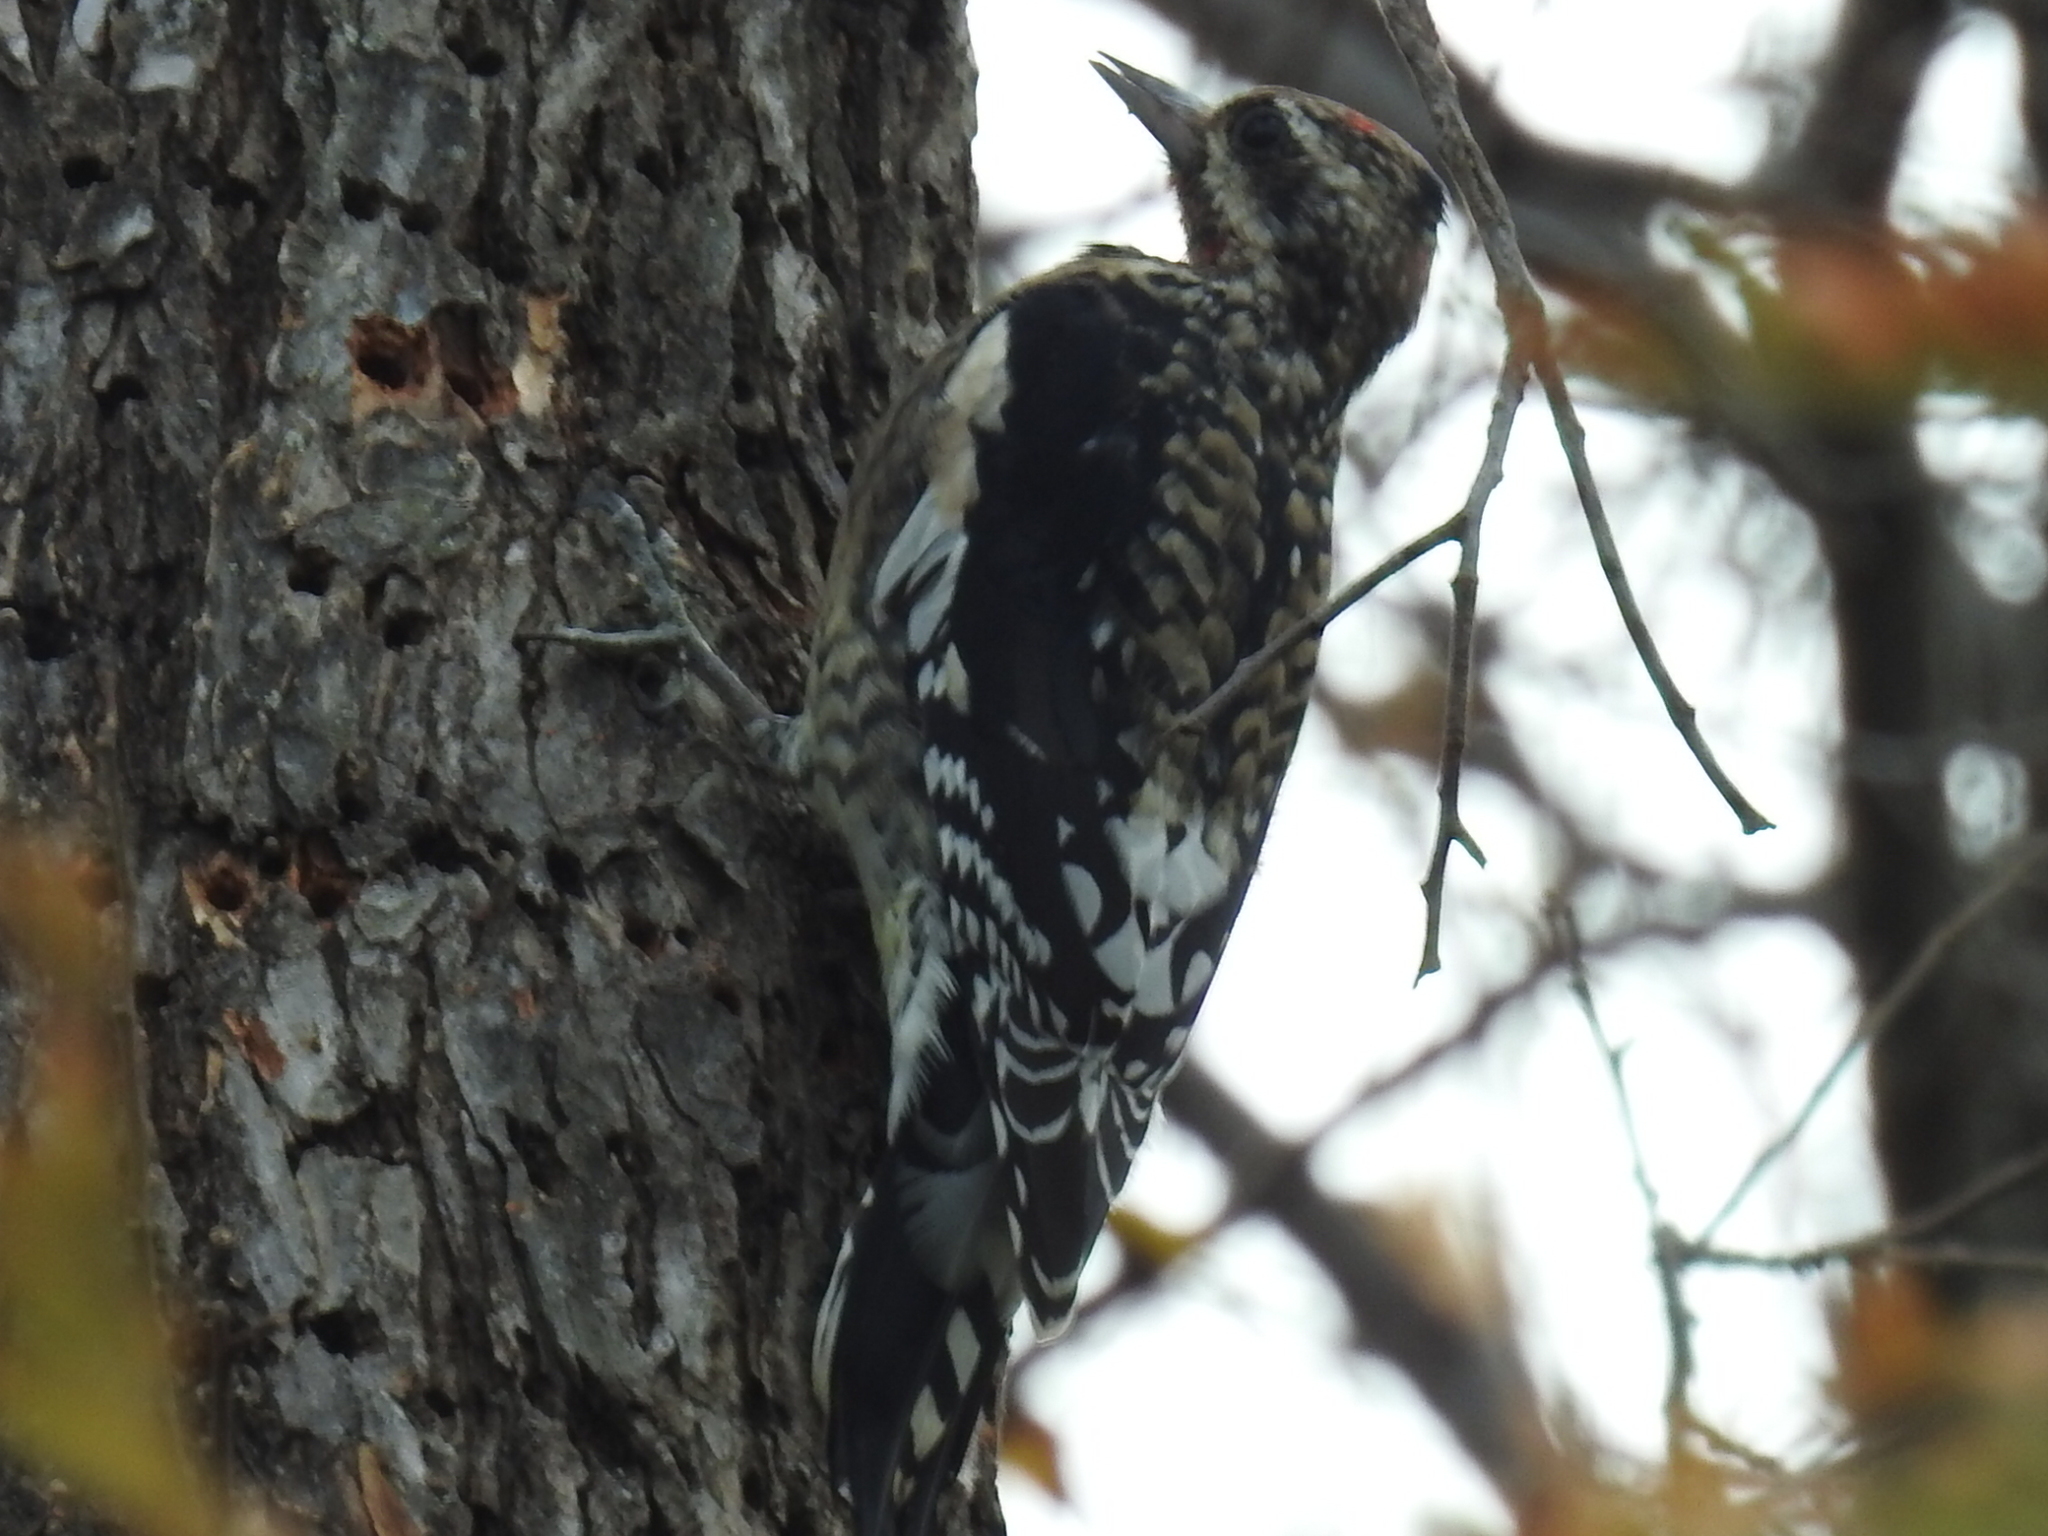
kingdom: Animalia
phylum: Chordata
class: Aves
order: Piciformes
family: Picidae
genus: Sphyrapicus
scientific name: Sphyrapicus varius
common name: Yellow-bellied sapsucker
